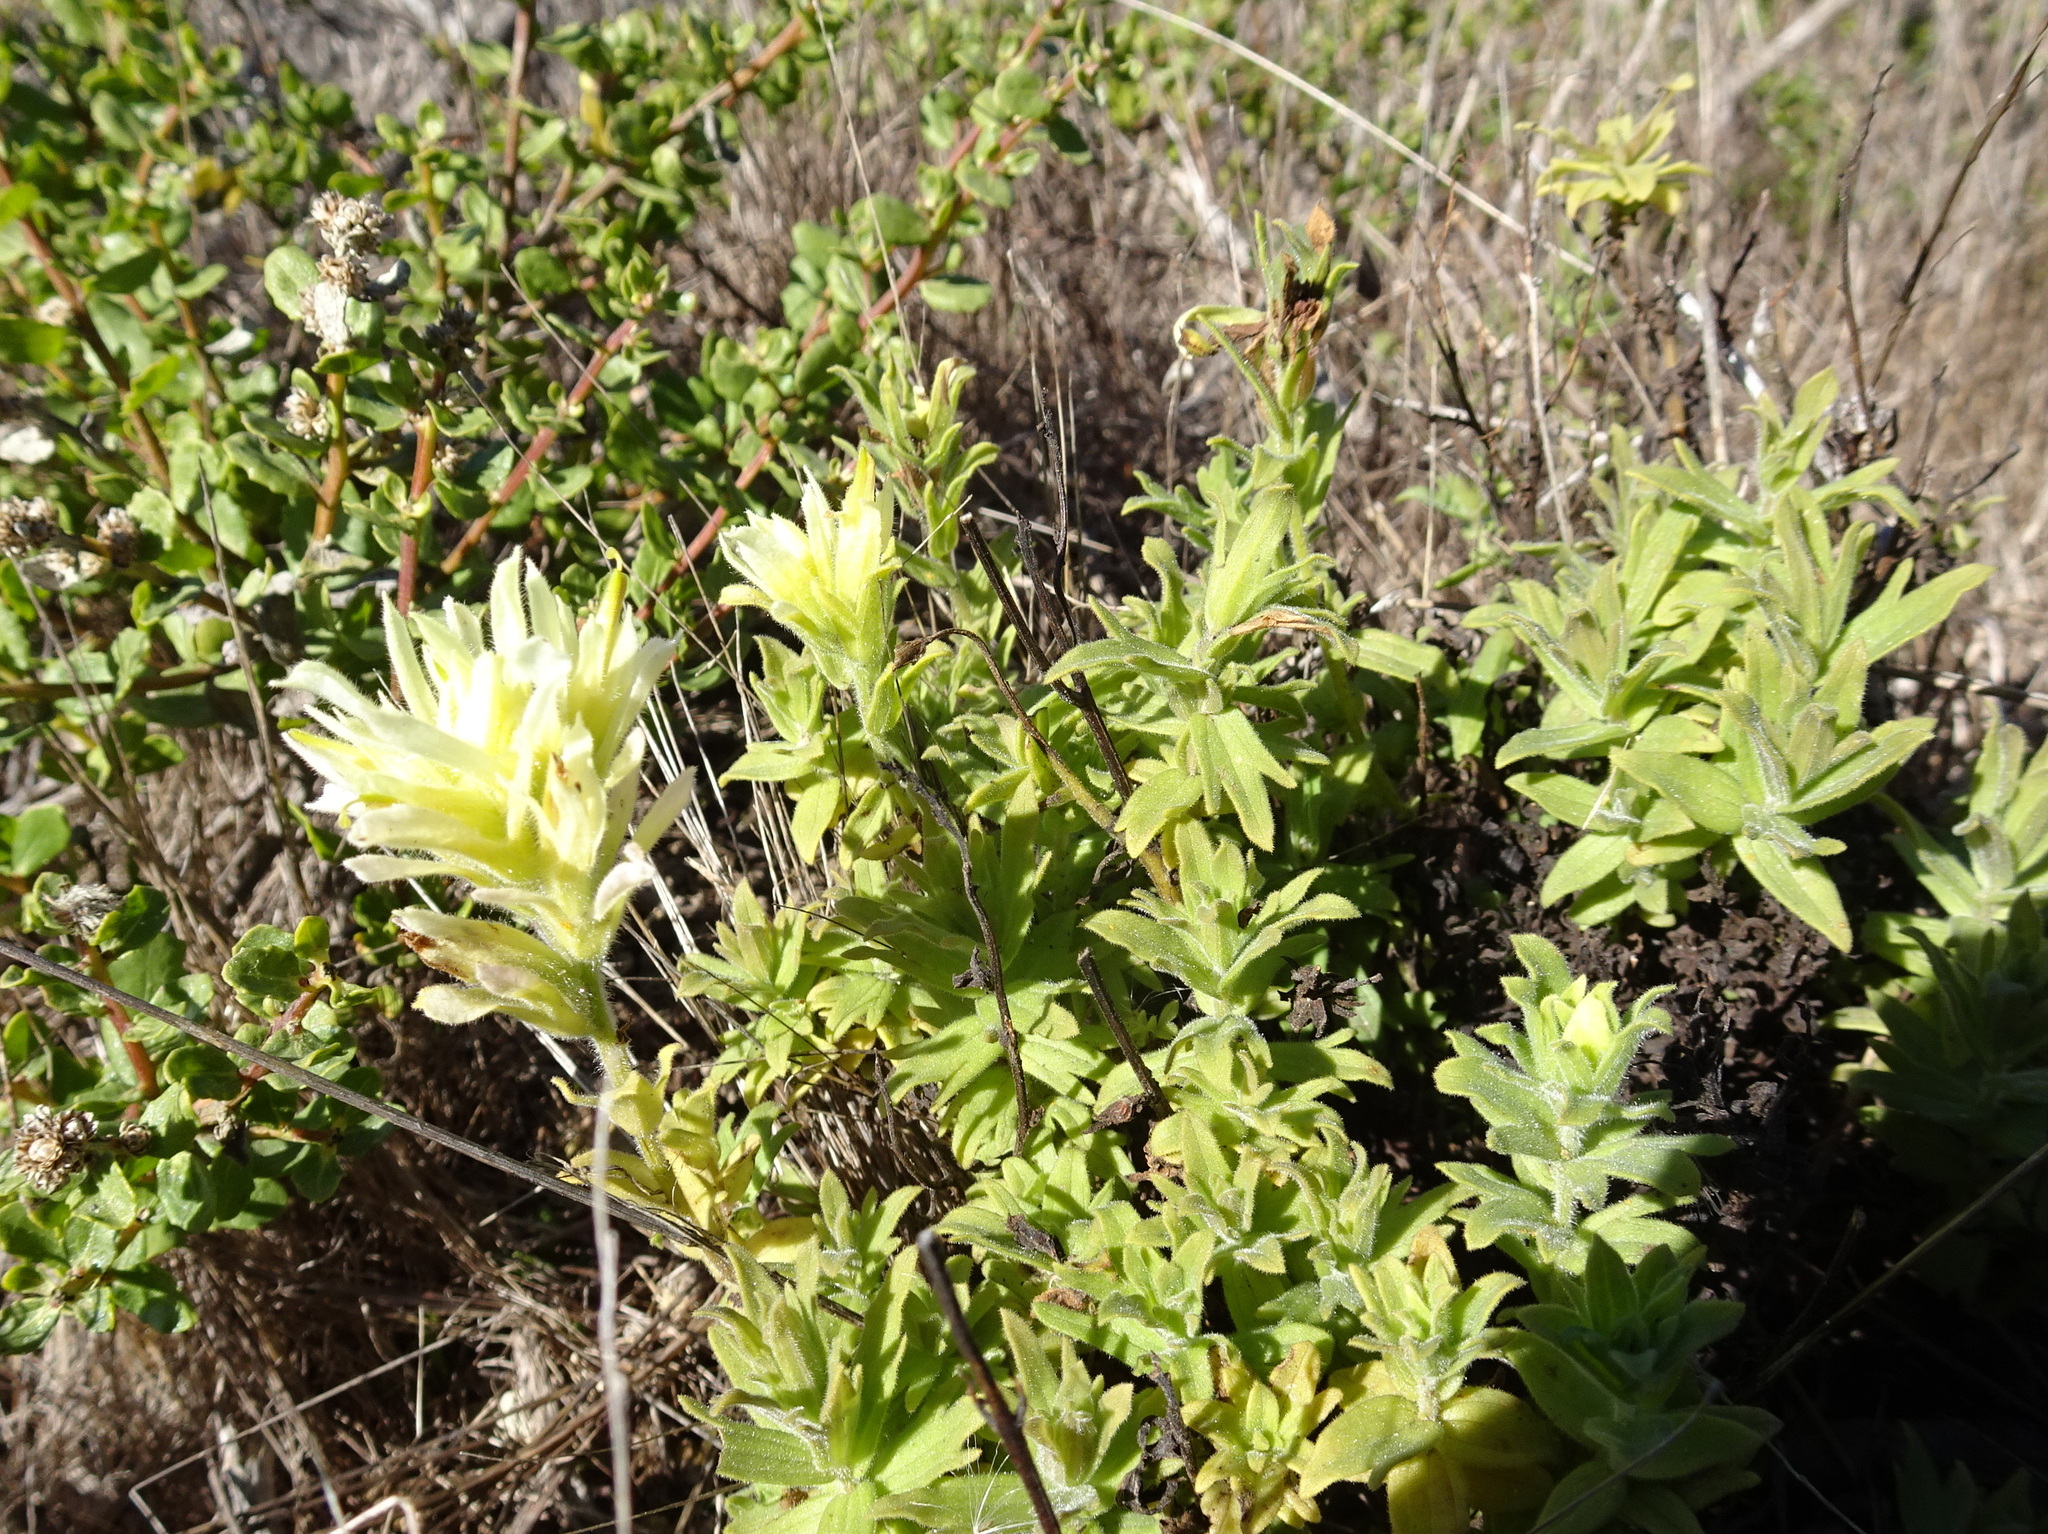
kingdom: Plantae
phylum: Tracheophyta
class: Magnoliopsida
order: Lamiales
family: Orobanchaceae
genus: Castilleja
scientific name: Castilleja wightii
